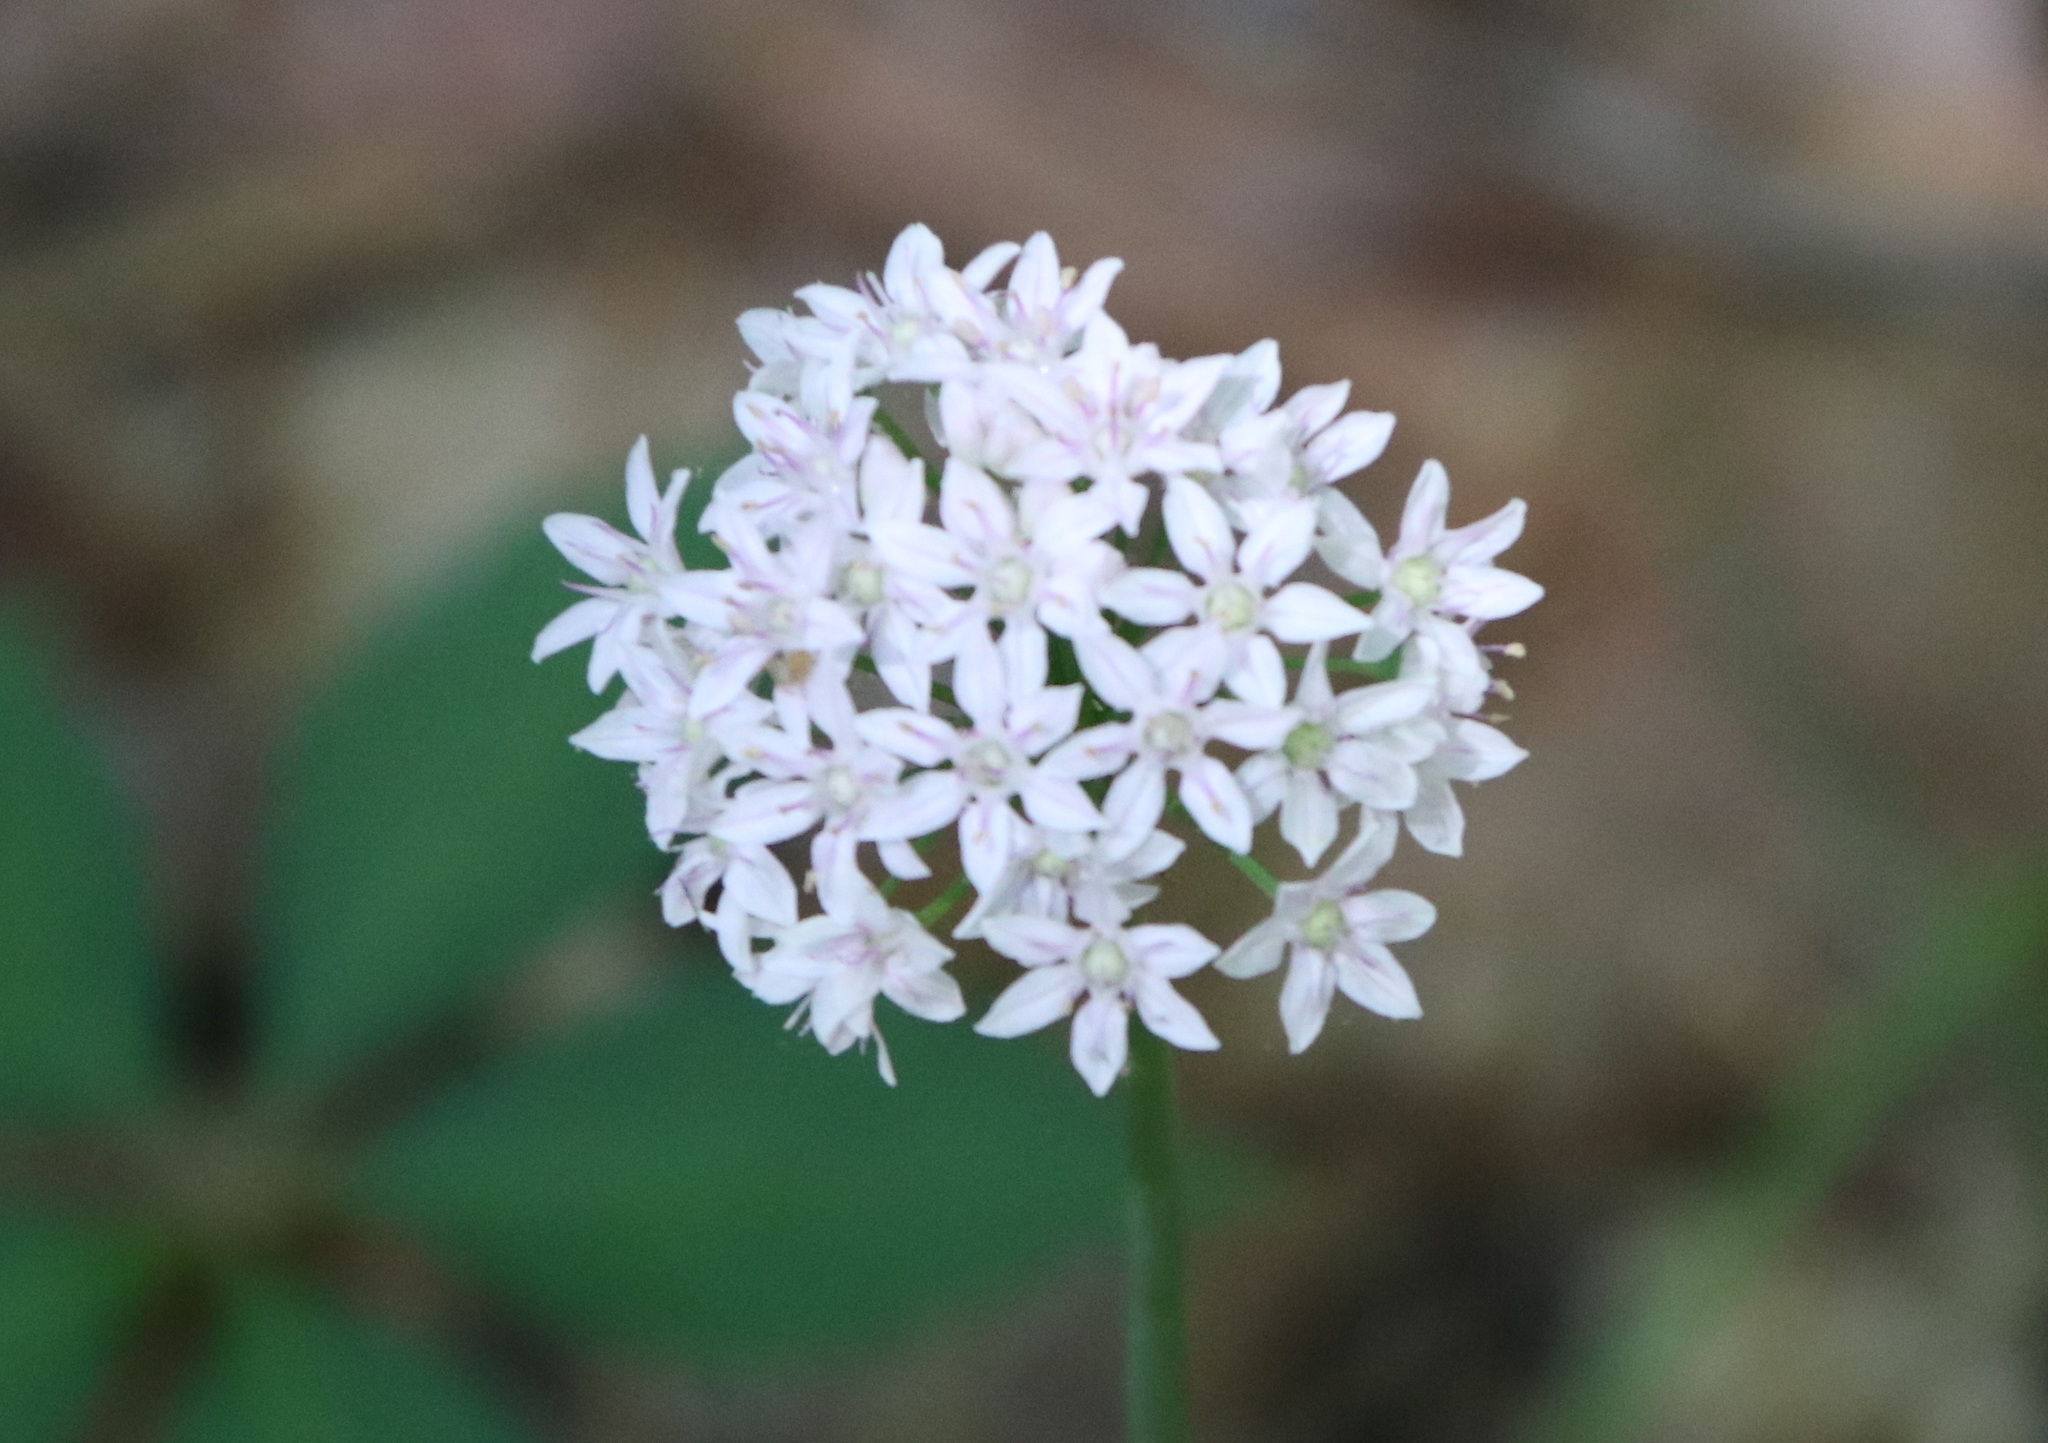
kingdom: Plantae
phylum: Tracheophyta
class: Liliopsida
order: Asparagales
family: Amaryllidaceae
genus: Allium
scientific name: Allium canadense
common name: Meadow garlic
